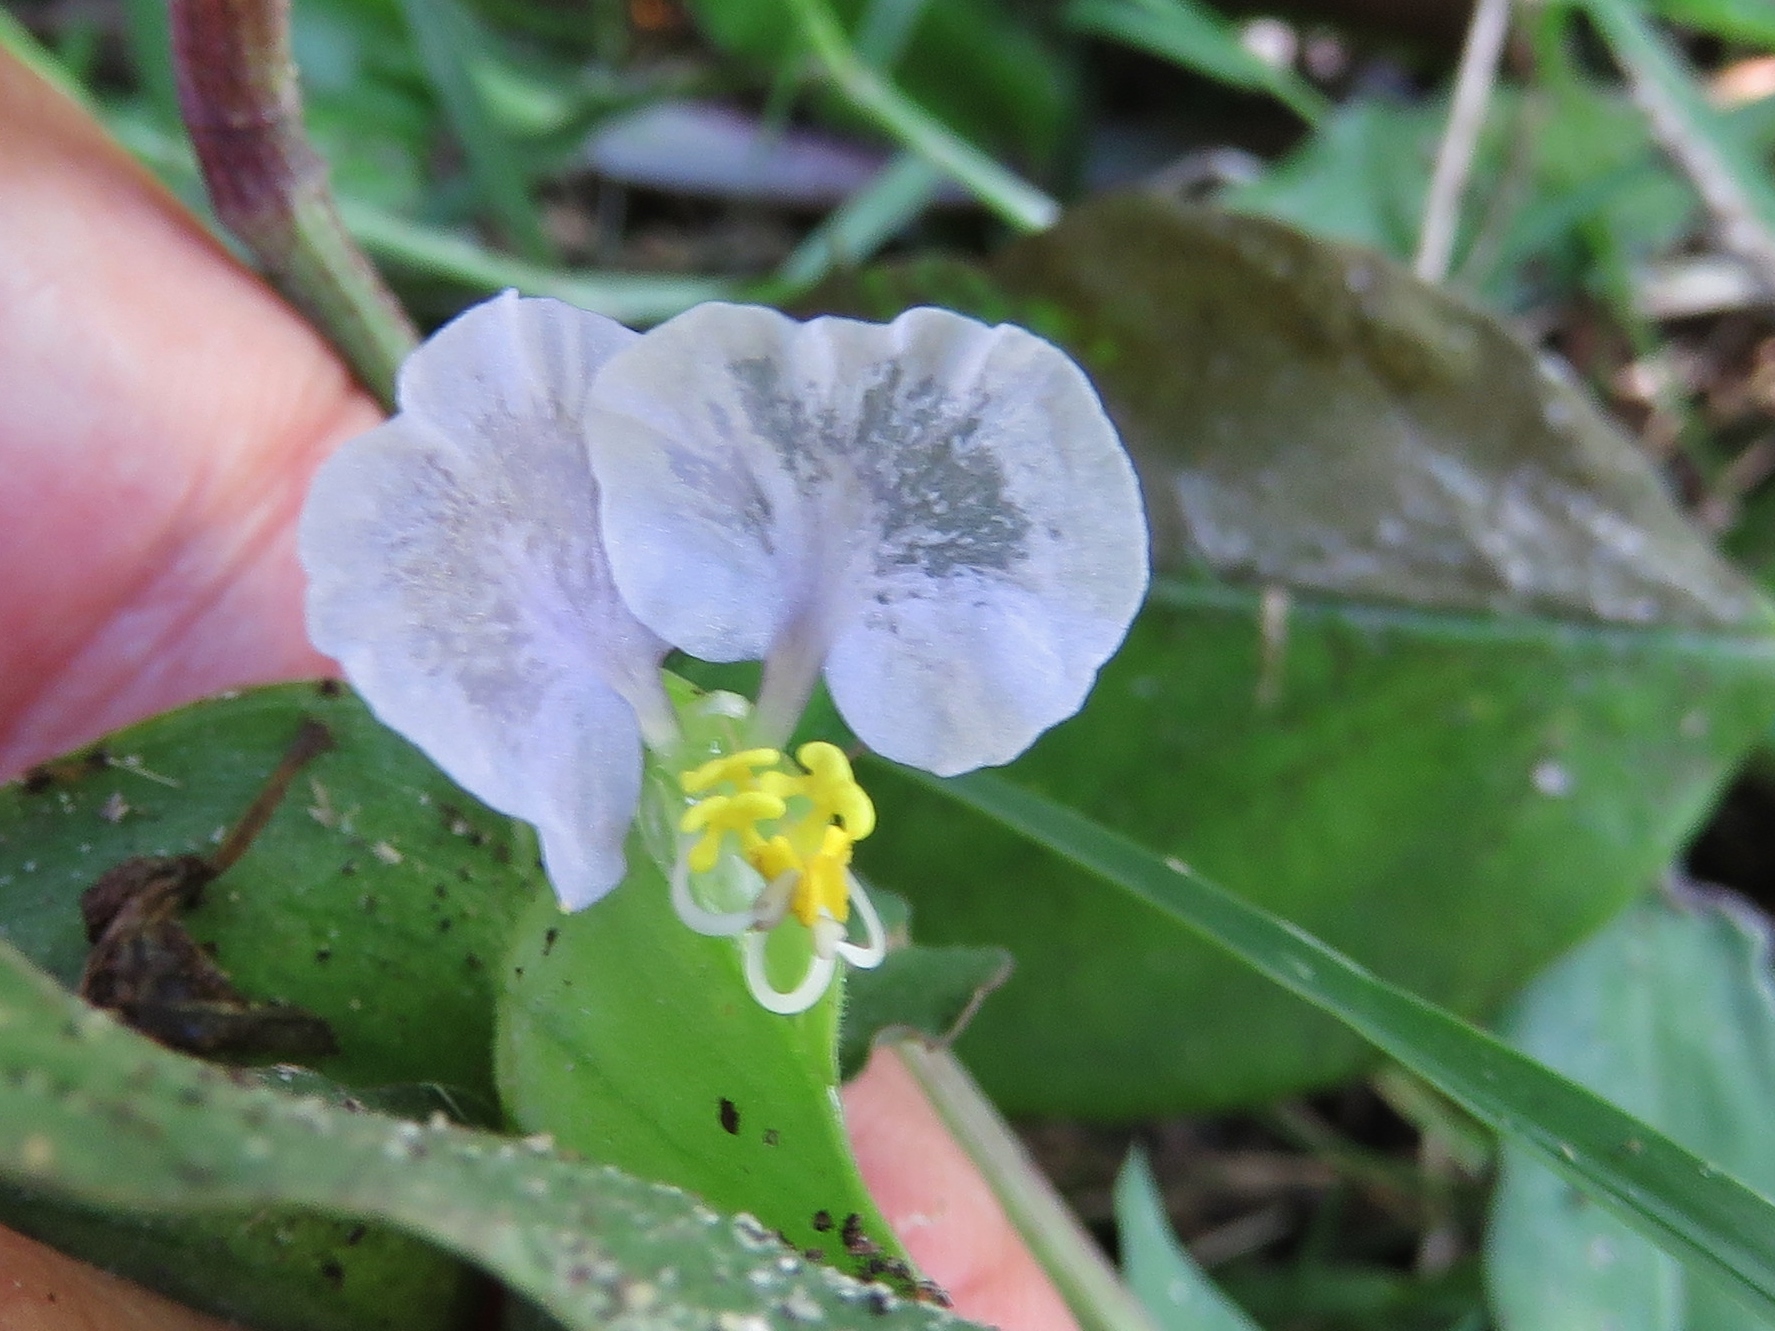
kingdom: Plantae
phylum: Tracheophyta
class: Liliopsida
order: Commelinales
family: Commelinaceae
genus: Commelina
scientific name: Commelina erecta
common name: Blousel blommetjie
